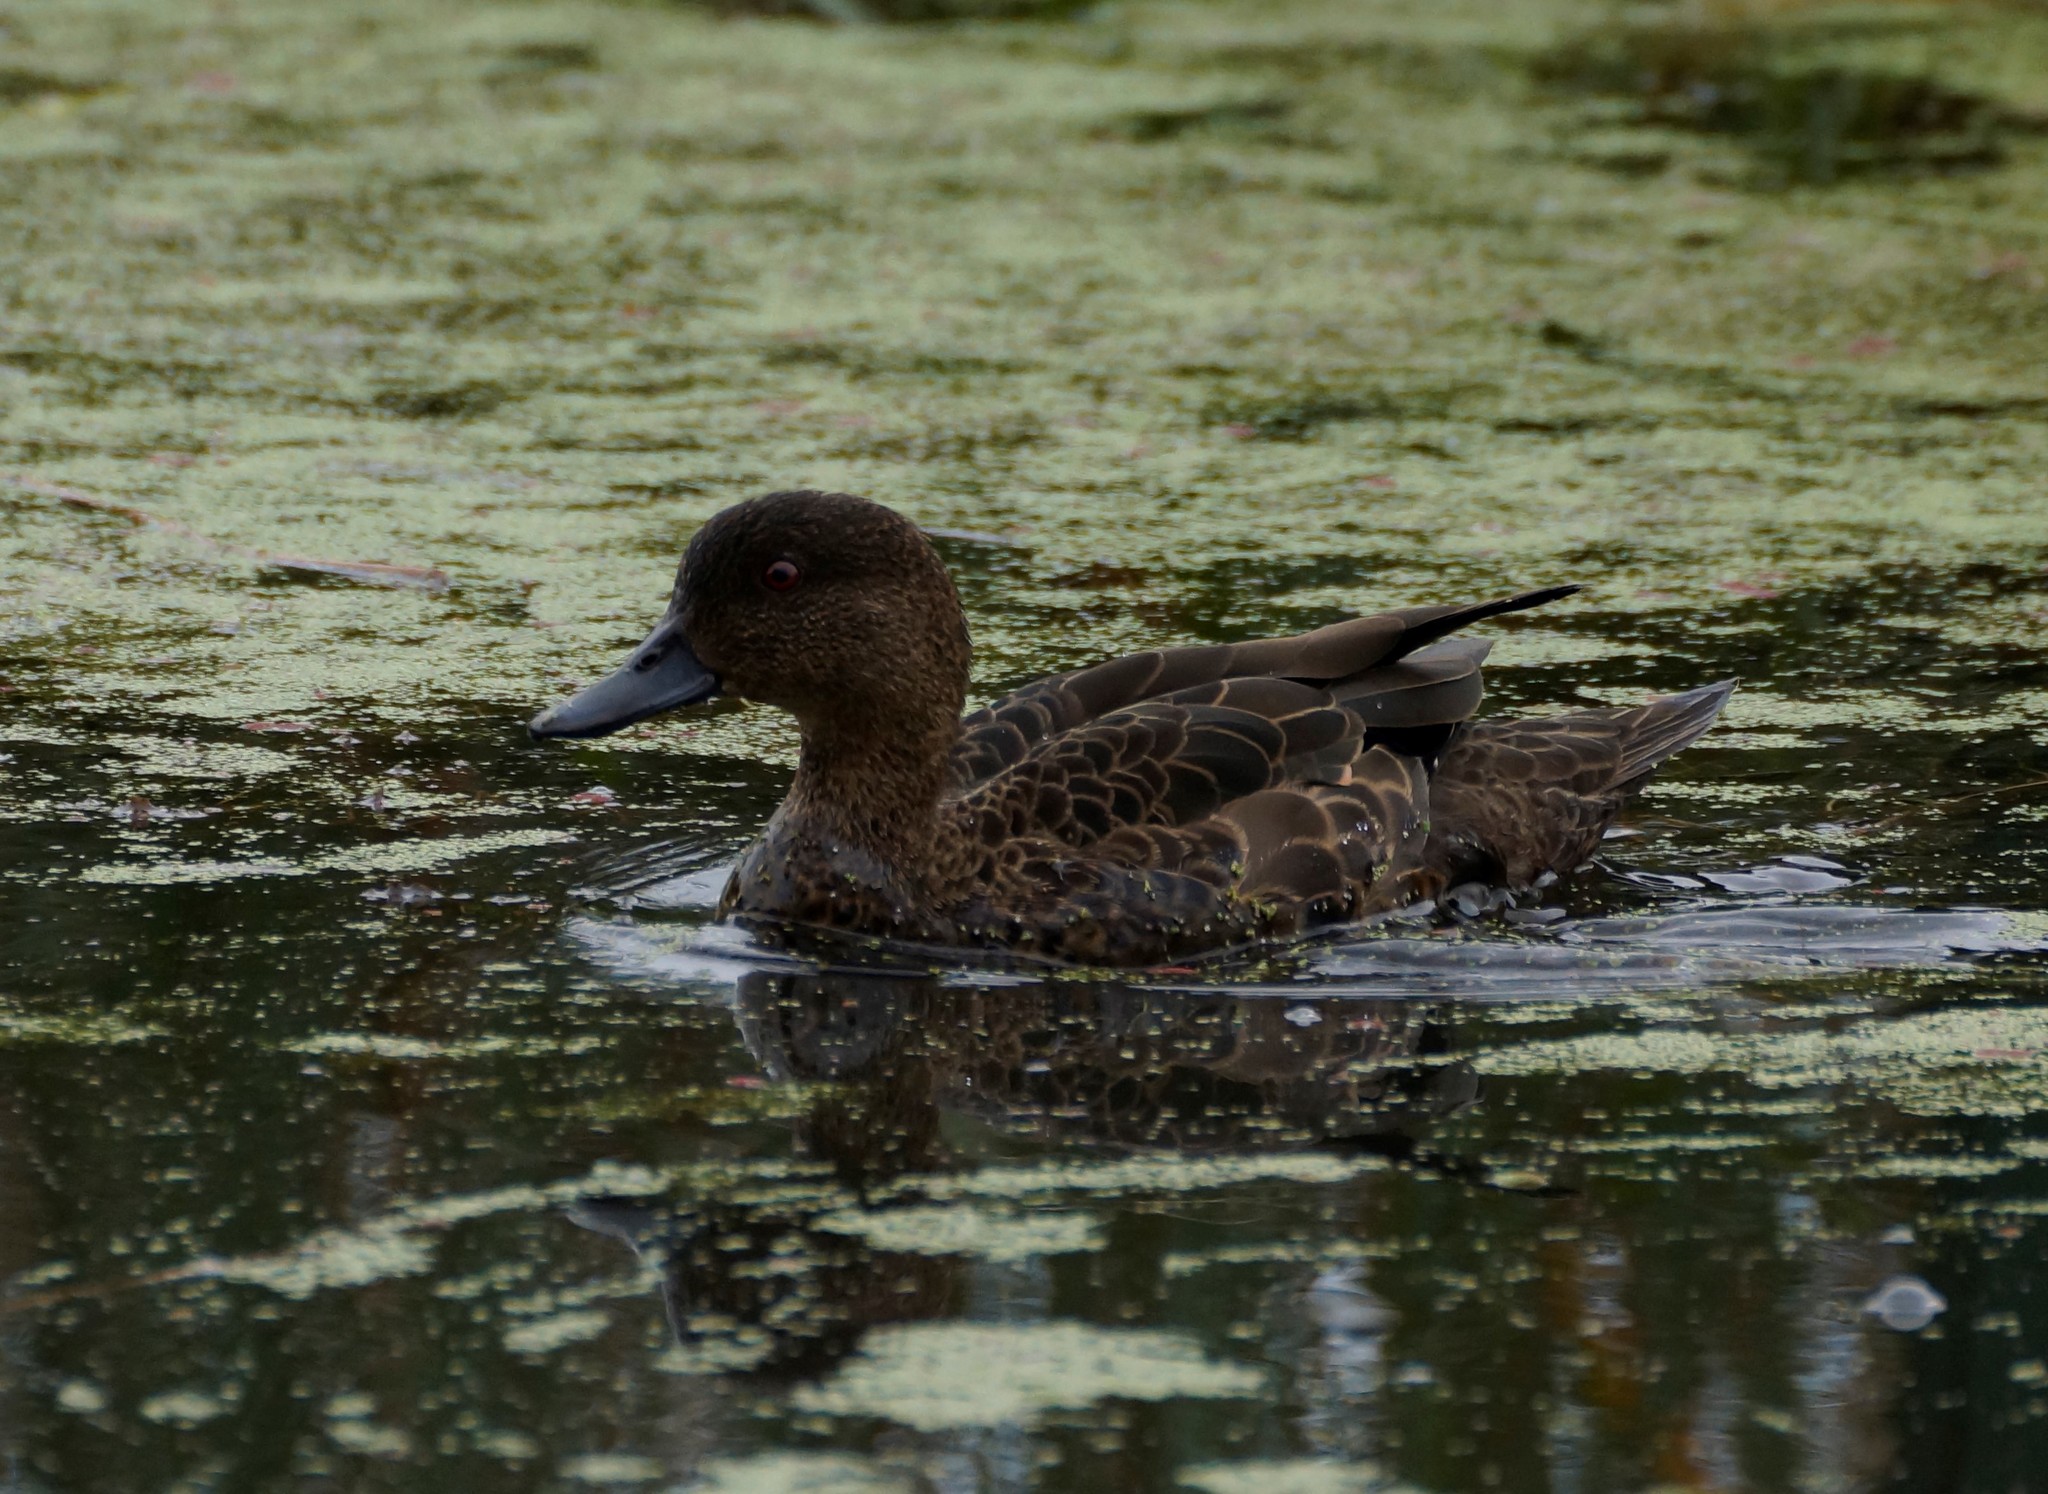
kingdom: Animalia
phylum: Chordata
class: Aves
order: Anseriformes
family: Anatidae
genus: Anas
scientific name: Anas castanea
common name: Chestnut teal
